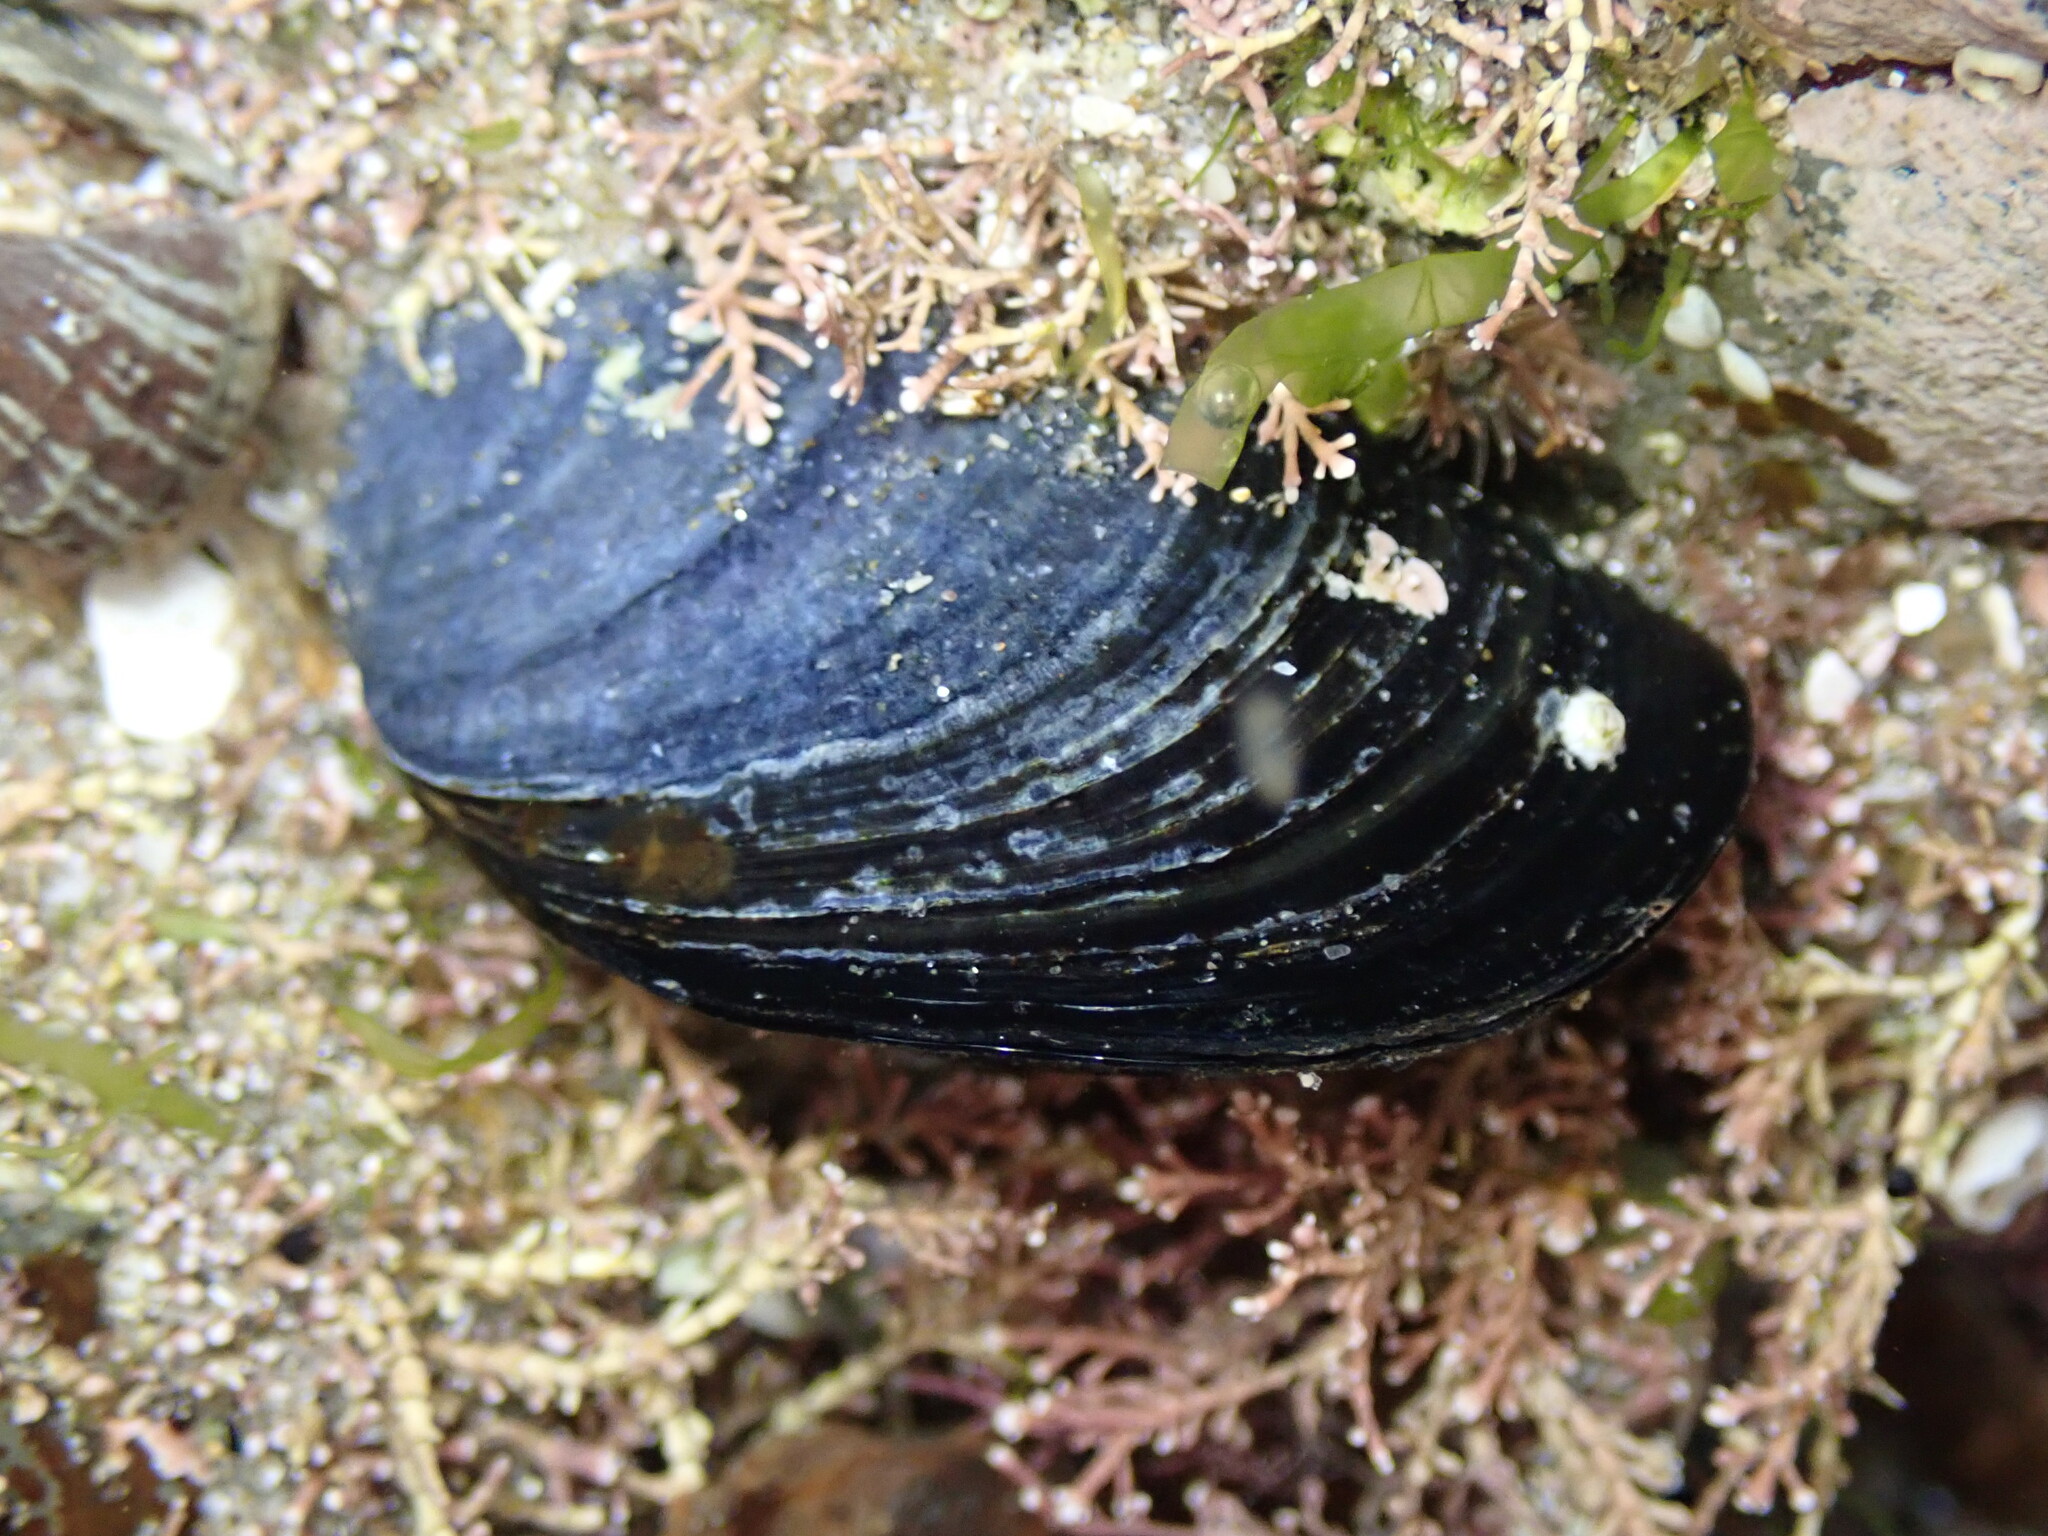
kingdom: Animalia
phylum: Mollusca
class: Bivalvia
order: Mytilida
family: Mytilidae
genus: Mytilus
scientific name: Mytilus planulatus
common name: Australian mussel
